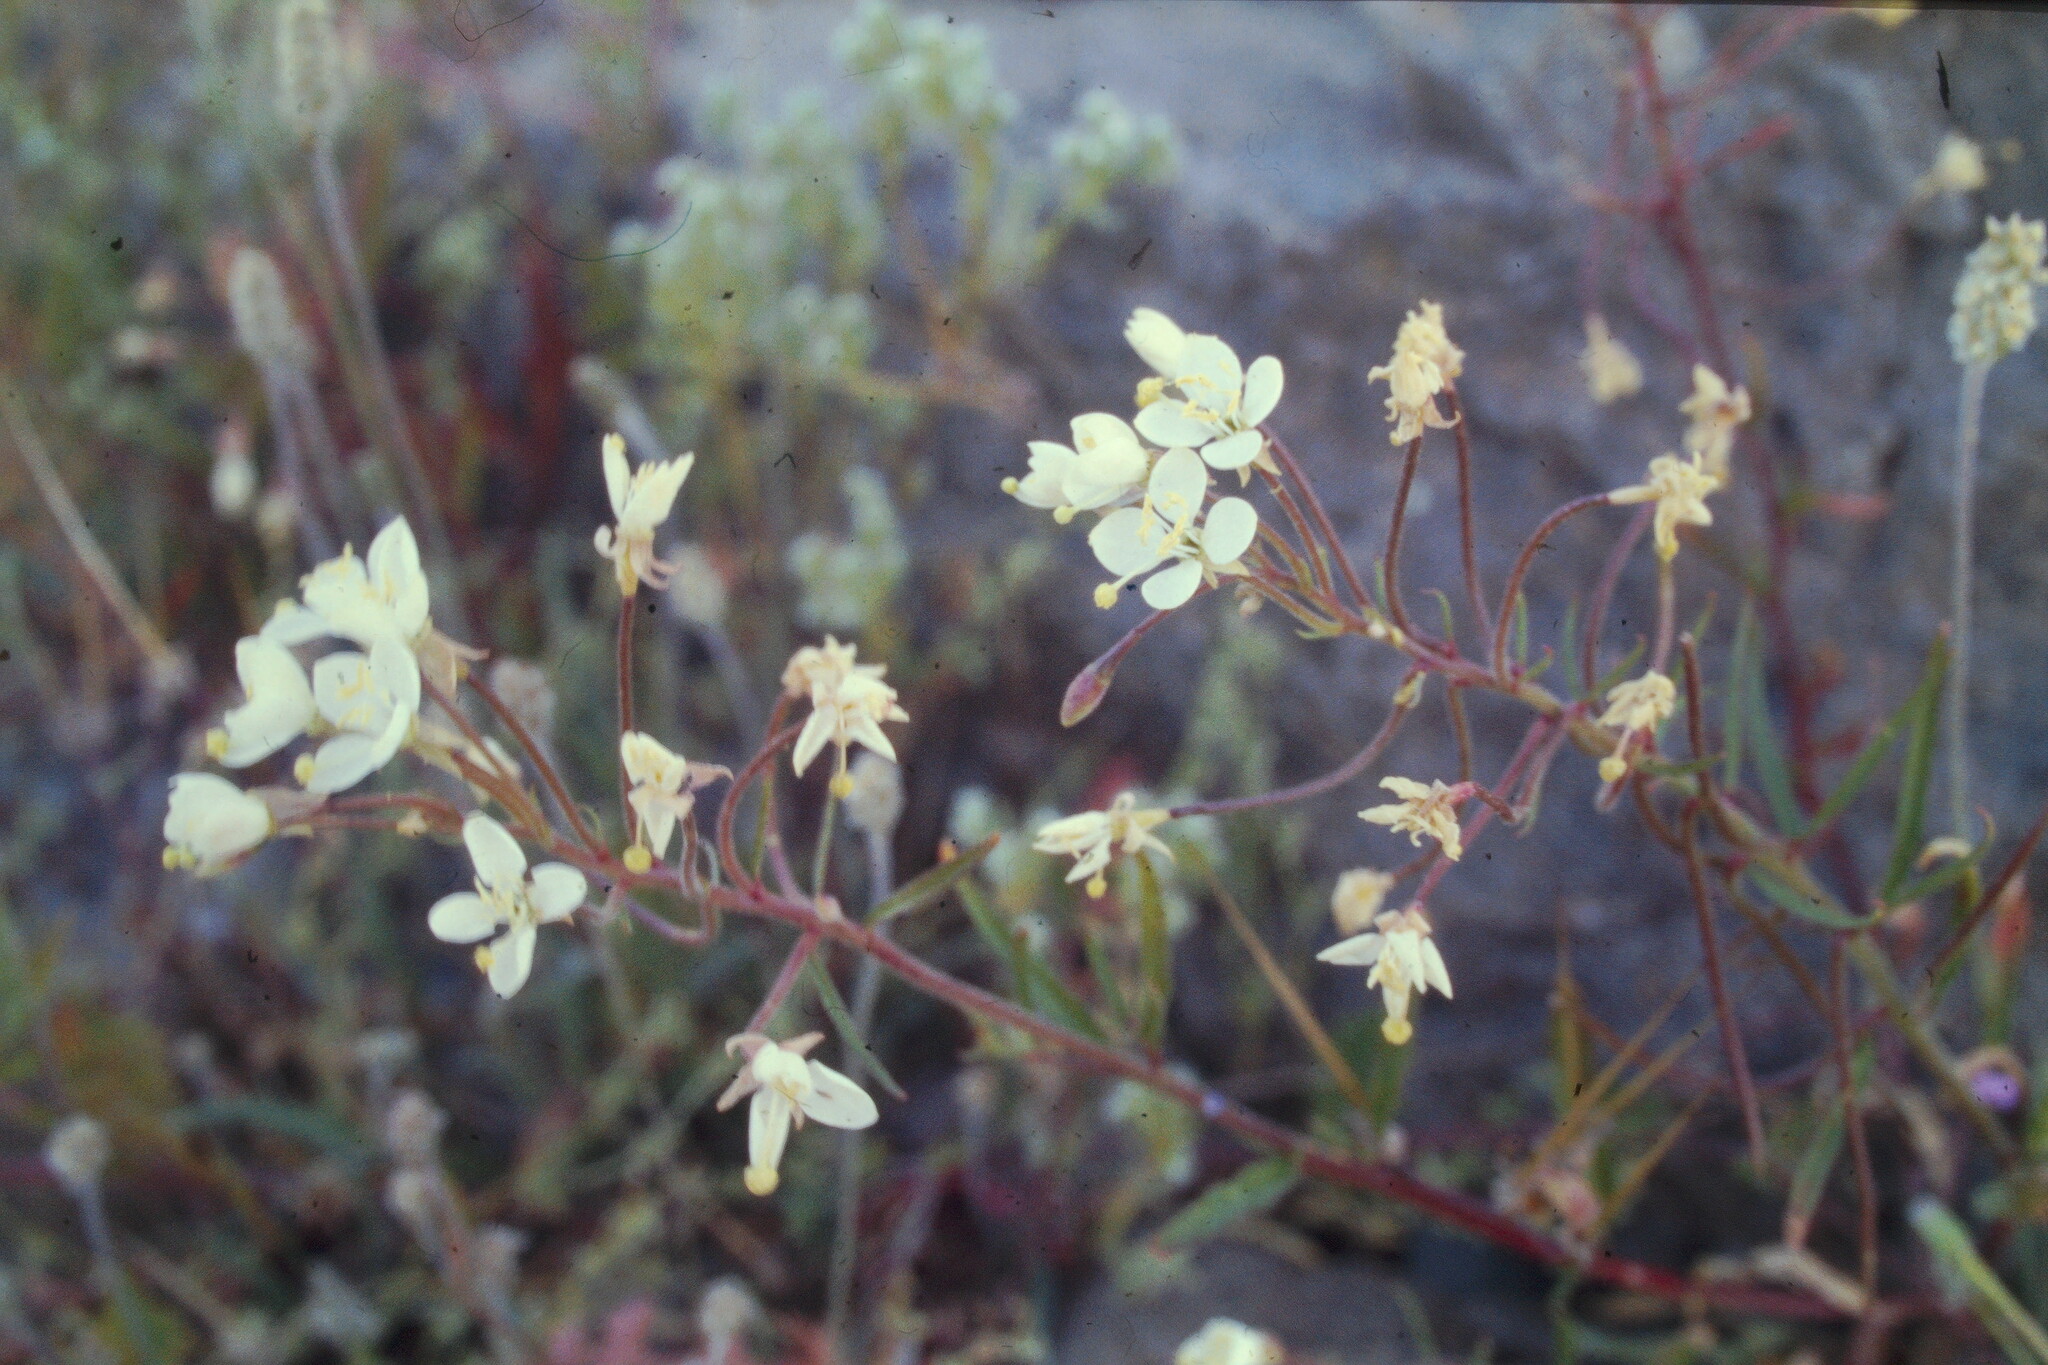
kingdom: Plantae
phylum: Tracheophyta
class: Magnoliopsida
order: Myrtales
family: Onagraceae
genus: Eremothera
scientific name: Eremothera refracta
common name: Narrowleaf suncup
